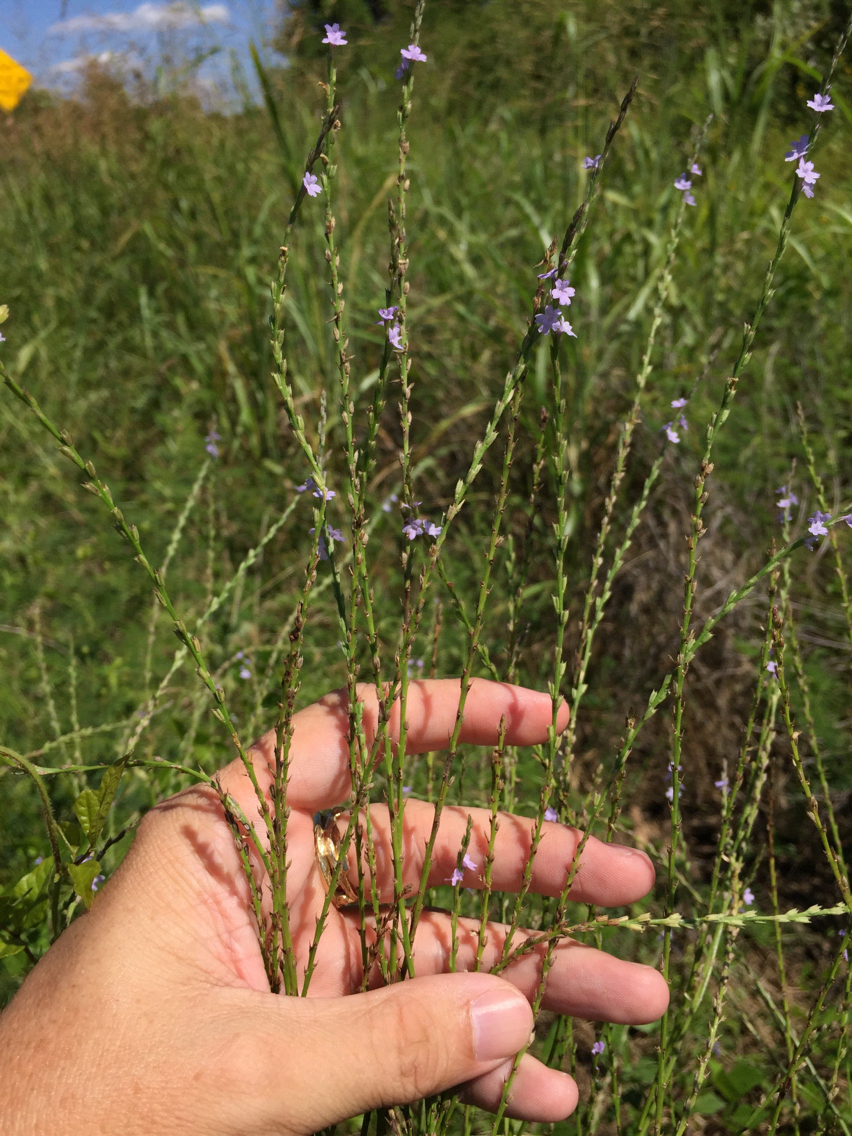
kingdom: Plantae
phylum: Tracheophyta
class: Magnoliopsida
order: Lamiales
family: Verbenaceae
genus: Verbena
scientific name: Verbena halei
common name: Texas vervain
